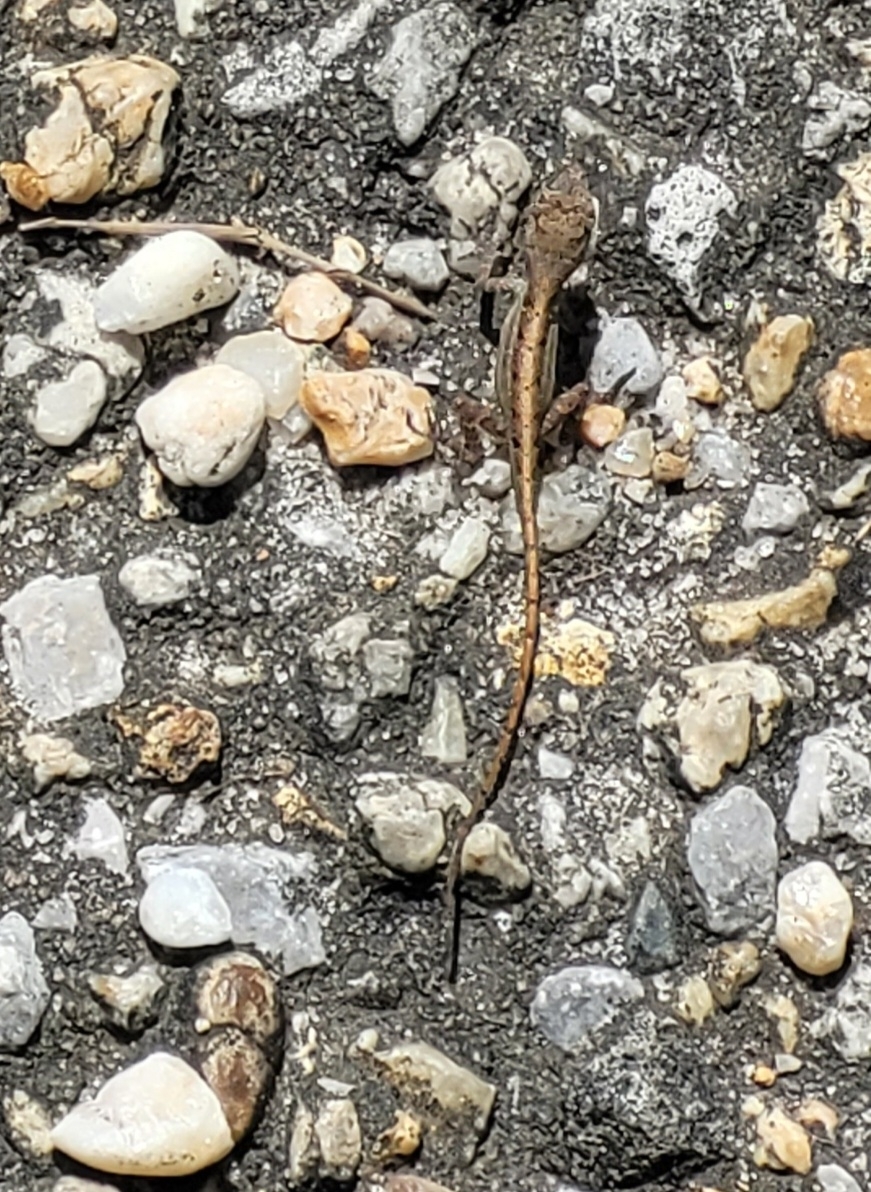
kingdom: Animalia
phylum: Chordata
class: Squamata
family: Dactyloidae
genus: Anolis
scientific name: Anolis sagrei
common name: Brown anole
